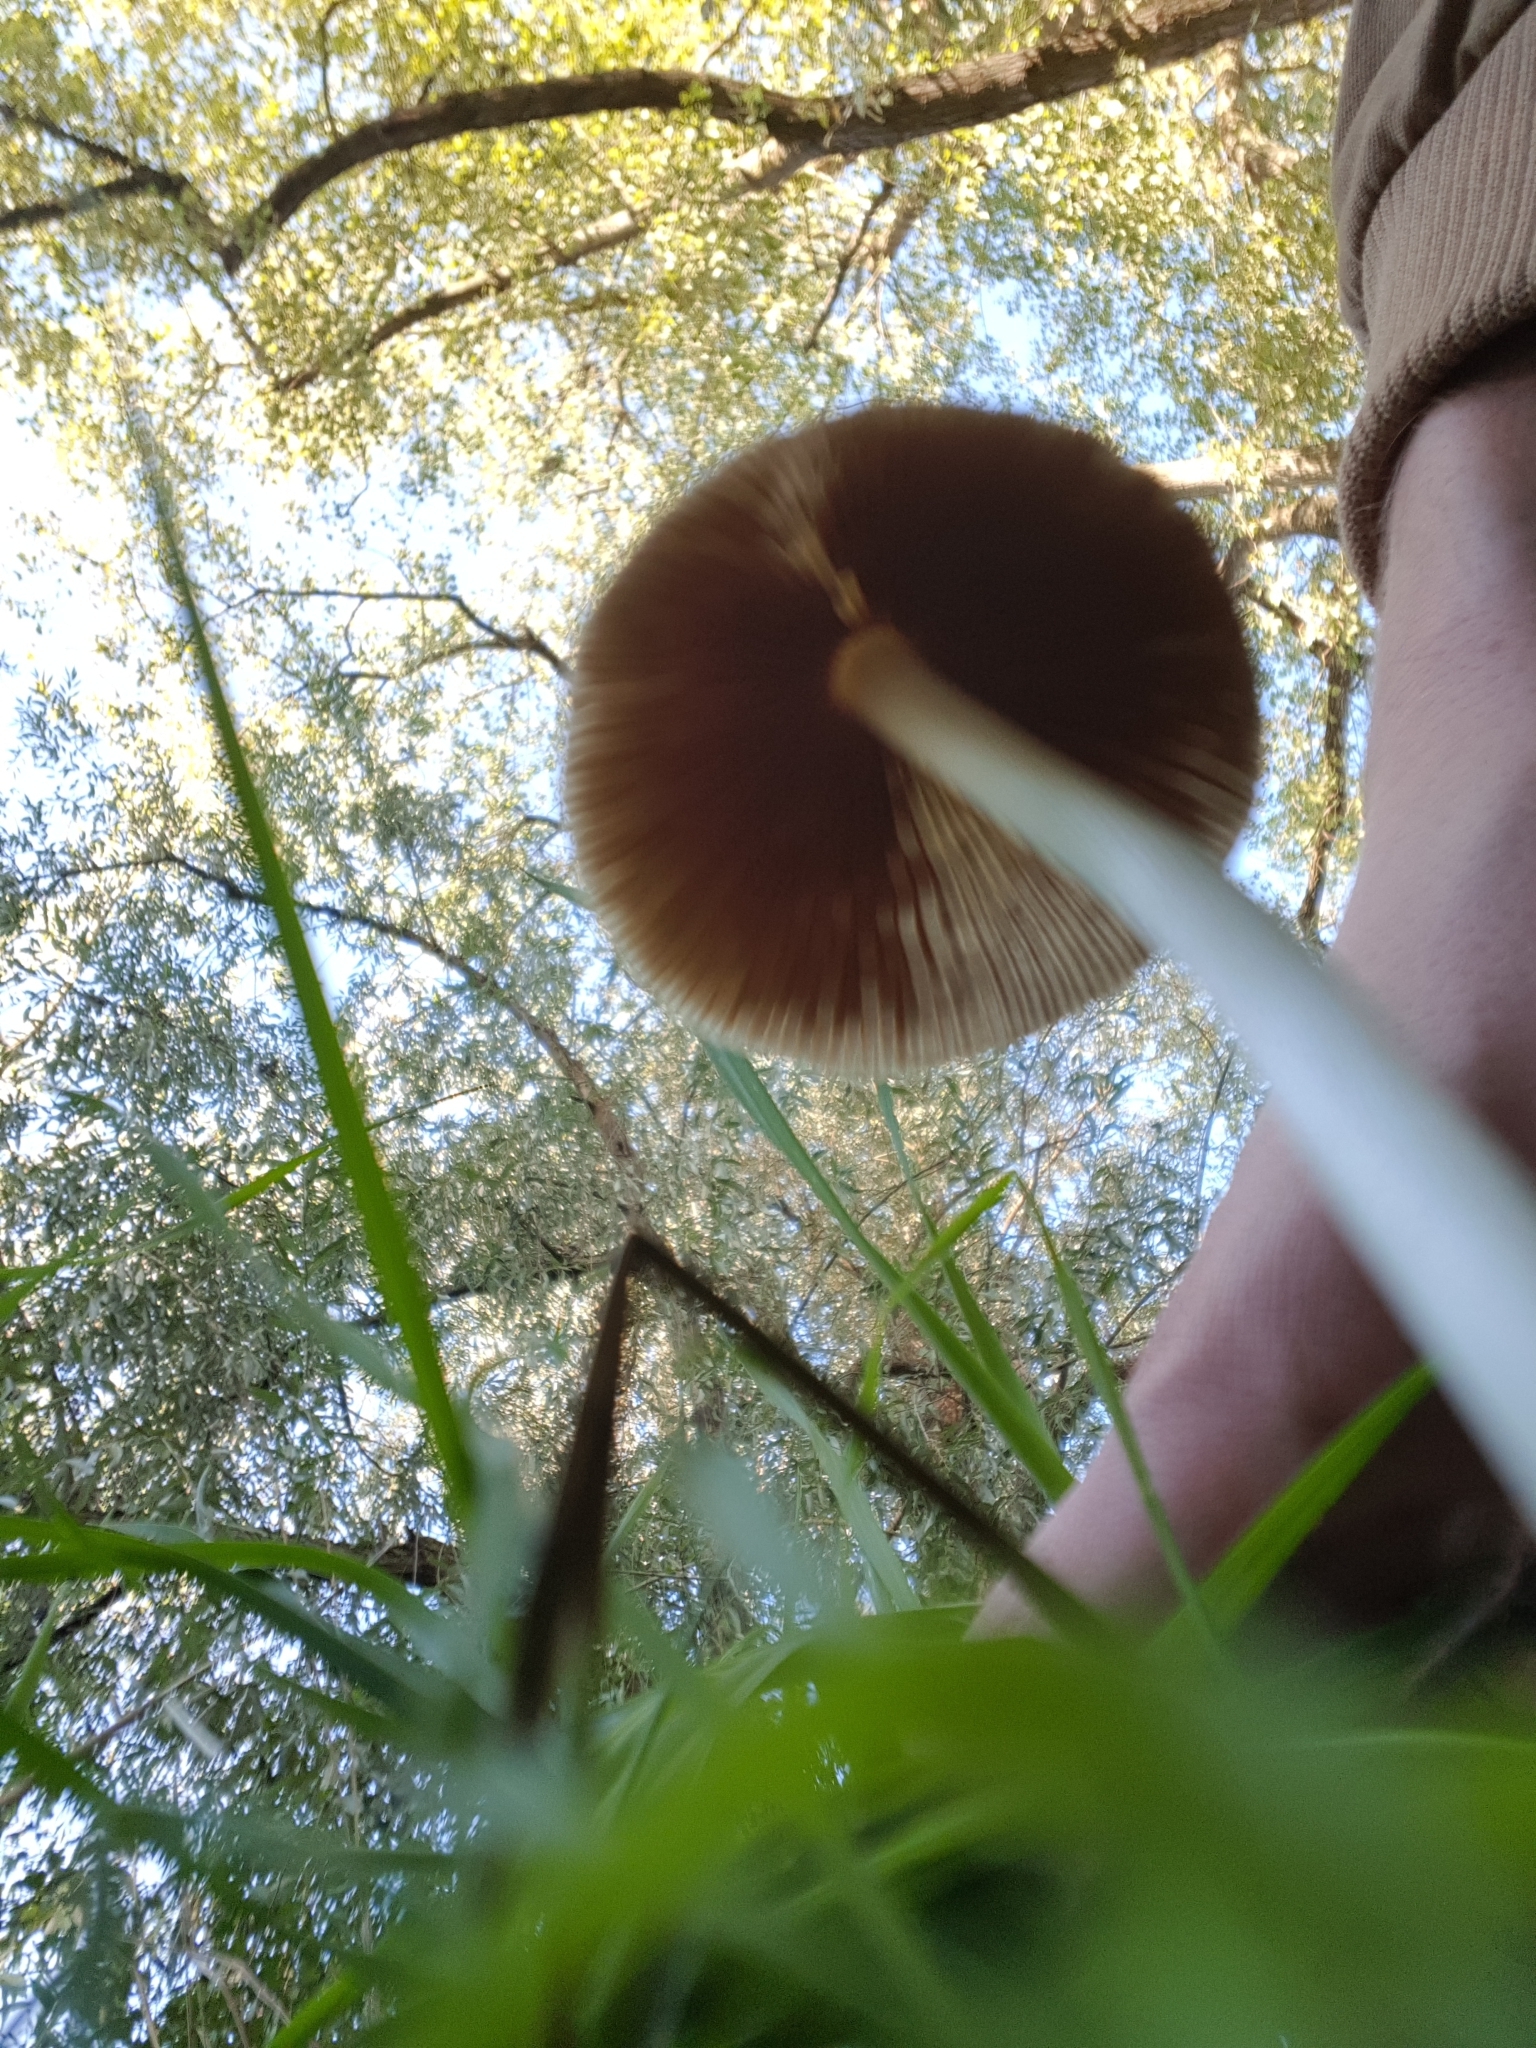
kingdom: Fungi
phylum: Basidiomycota
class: Agaricomycetes
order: Agaricales
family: Bolbitiaceae
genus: Bolbitius
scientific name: Bolbitius titubans
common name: Yellow fieldcap
